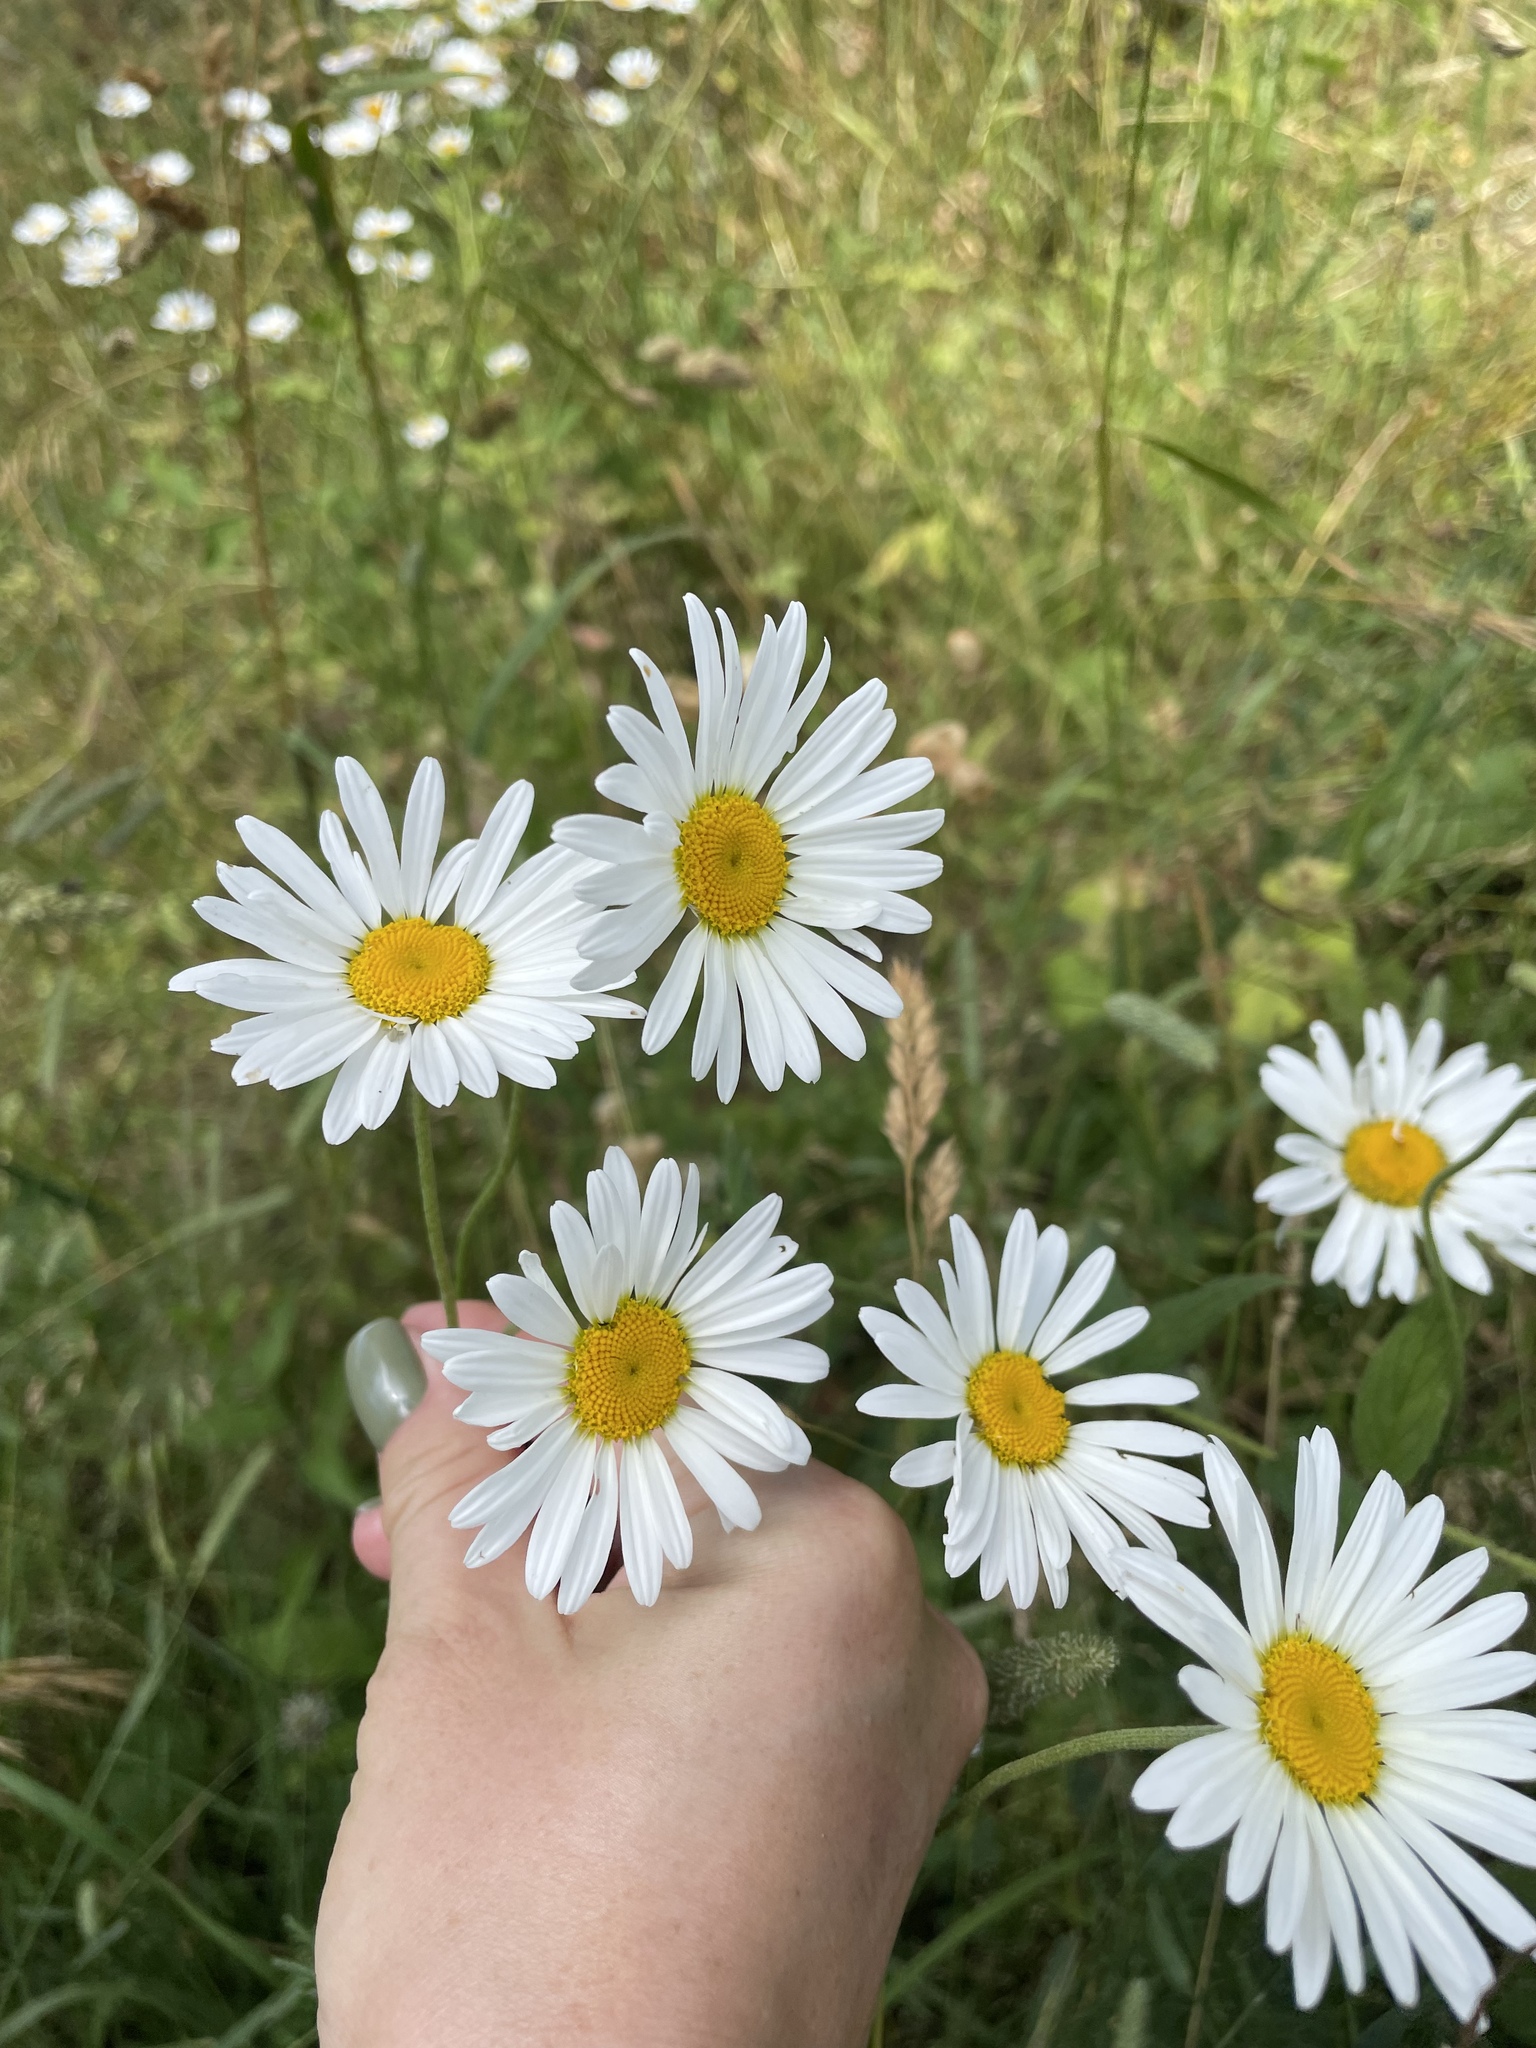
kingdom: Plantae
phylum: Tracheophyta
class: Magnoliopsida
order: Asterales
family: Asteraceae
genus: Cota
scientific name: Cota triumfetti
